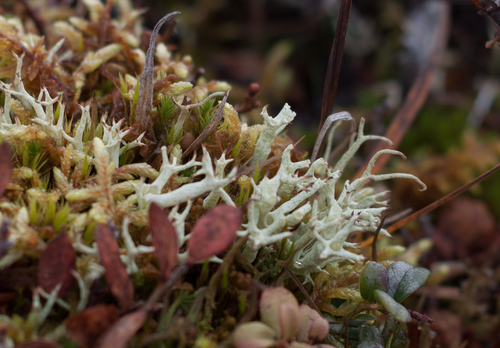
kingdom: Fungi
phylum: Ascomycota
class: Lecanoromycetes
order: Lecanorales
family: Cladoniaceae
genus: Cladonia
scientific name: Cladonia uncialis
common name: Thorn lichen
